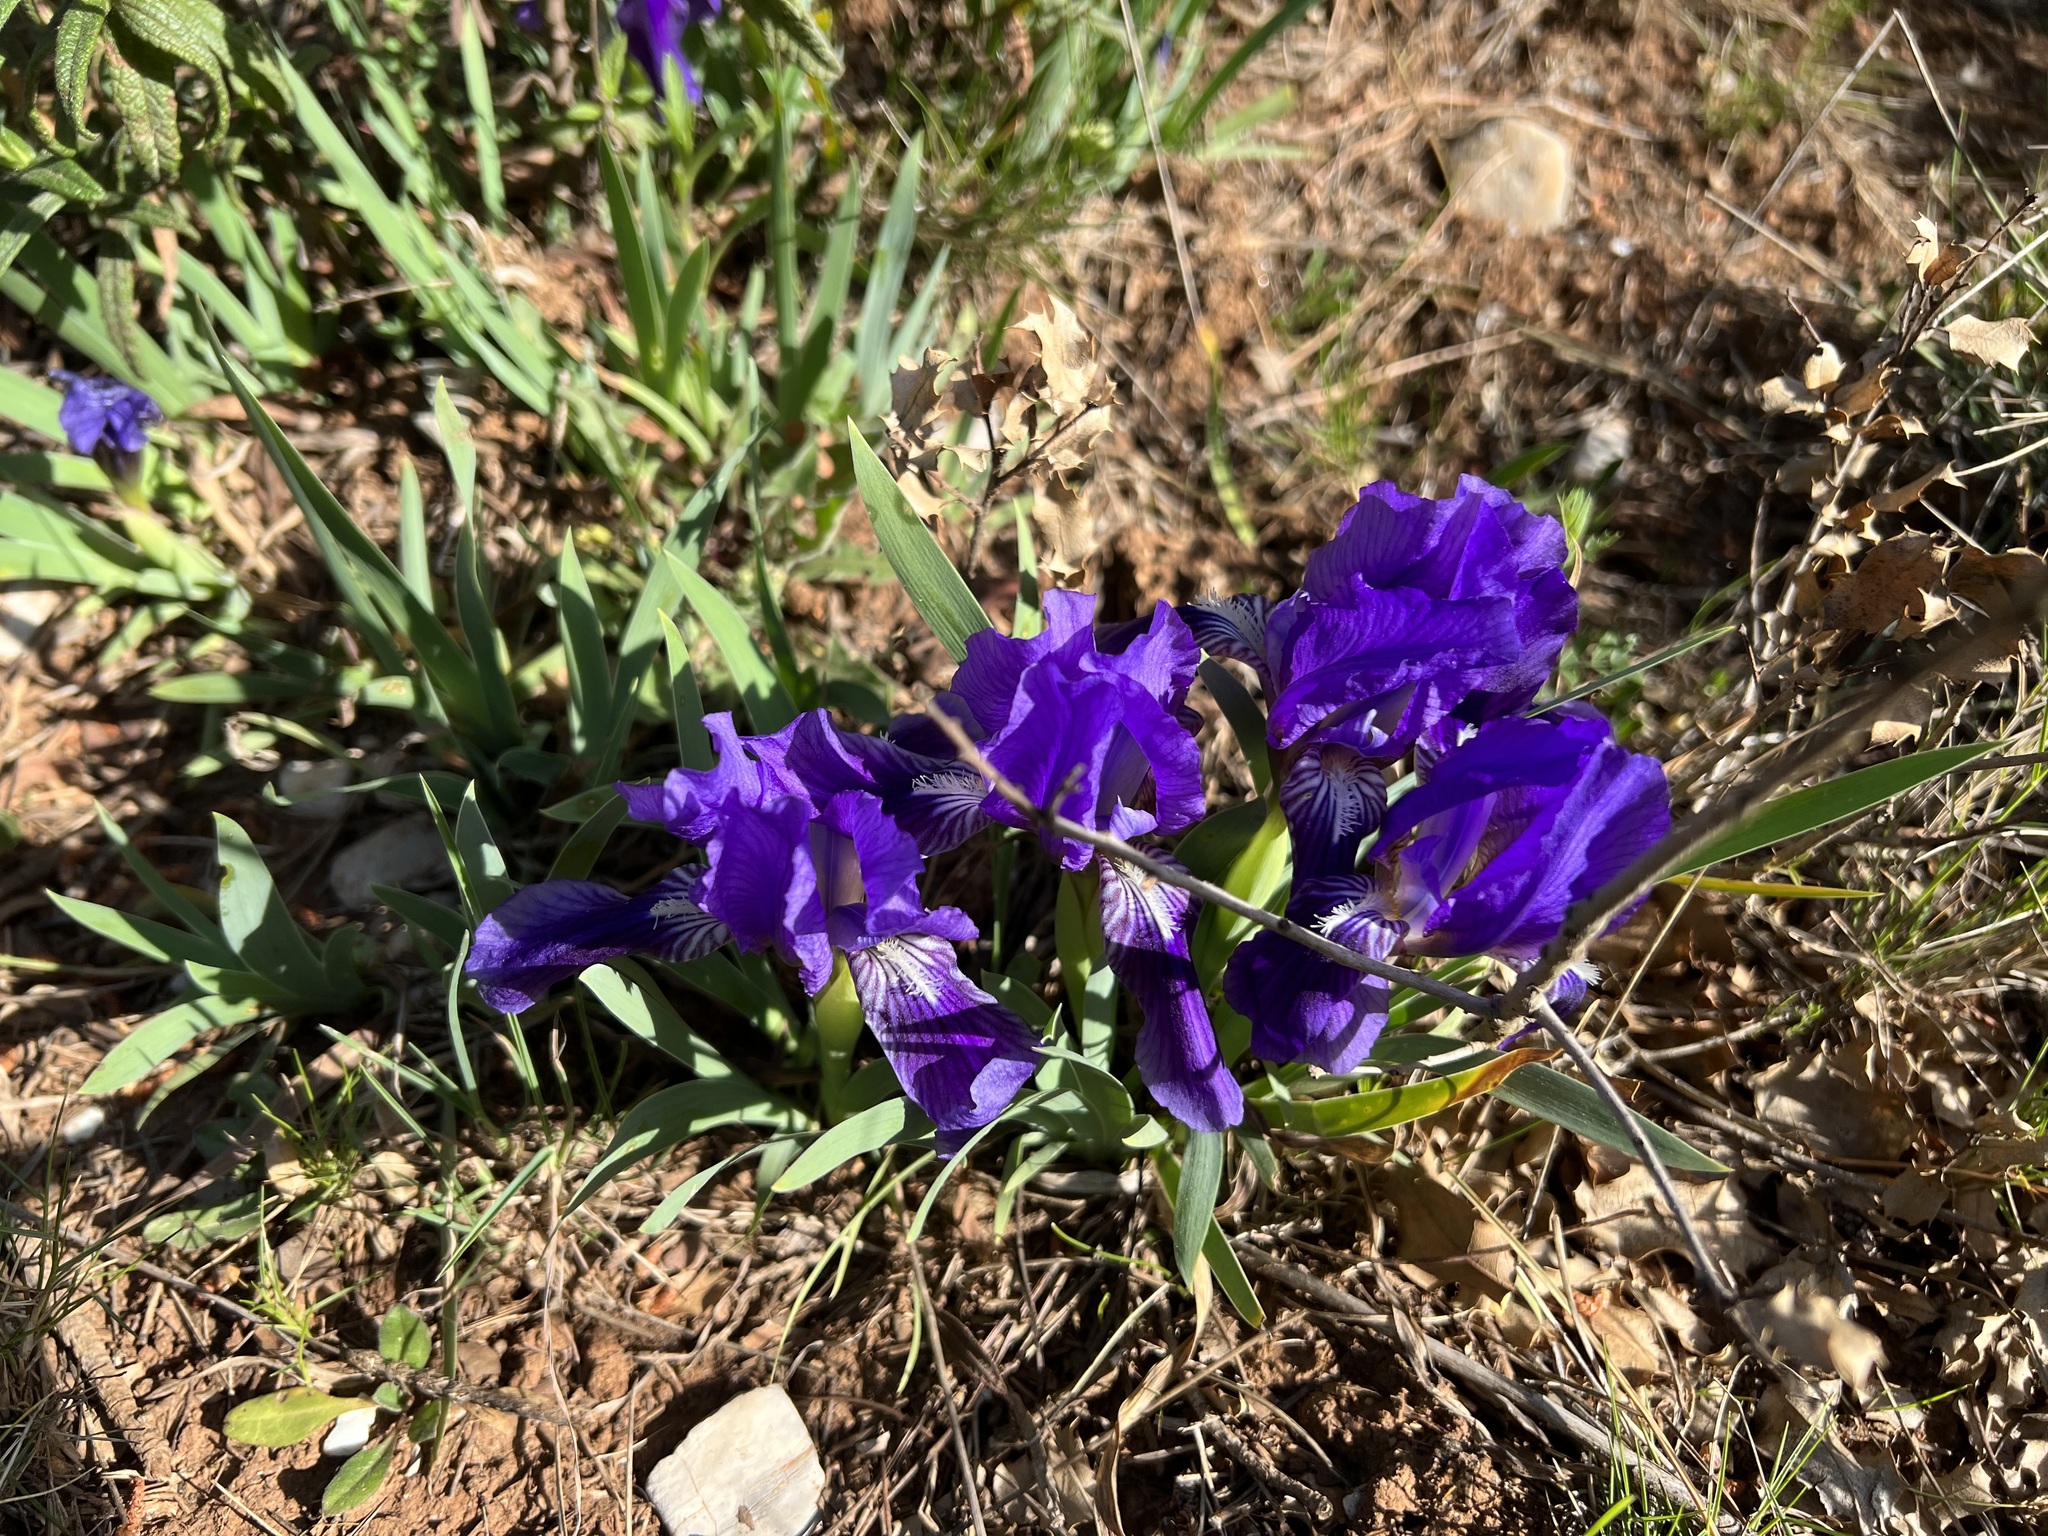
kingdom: Plantae
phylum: Tracheophyta
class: Liliopsida
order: Asparagales
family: Iridaceae
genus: Iris
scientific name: Iris lutescens
